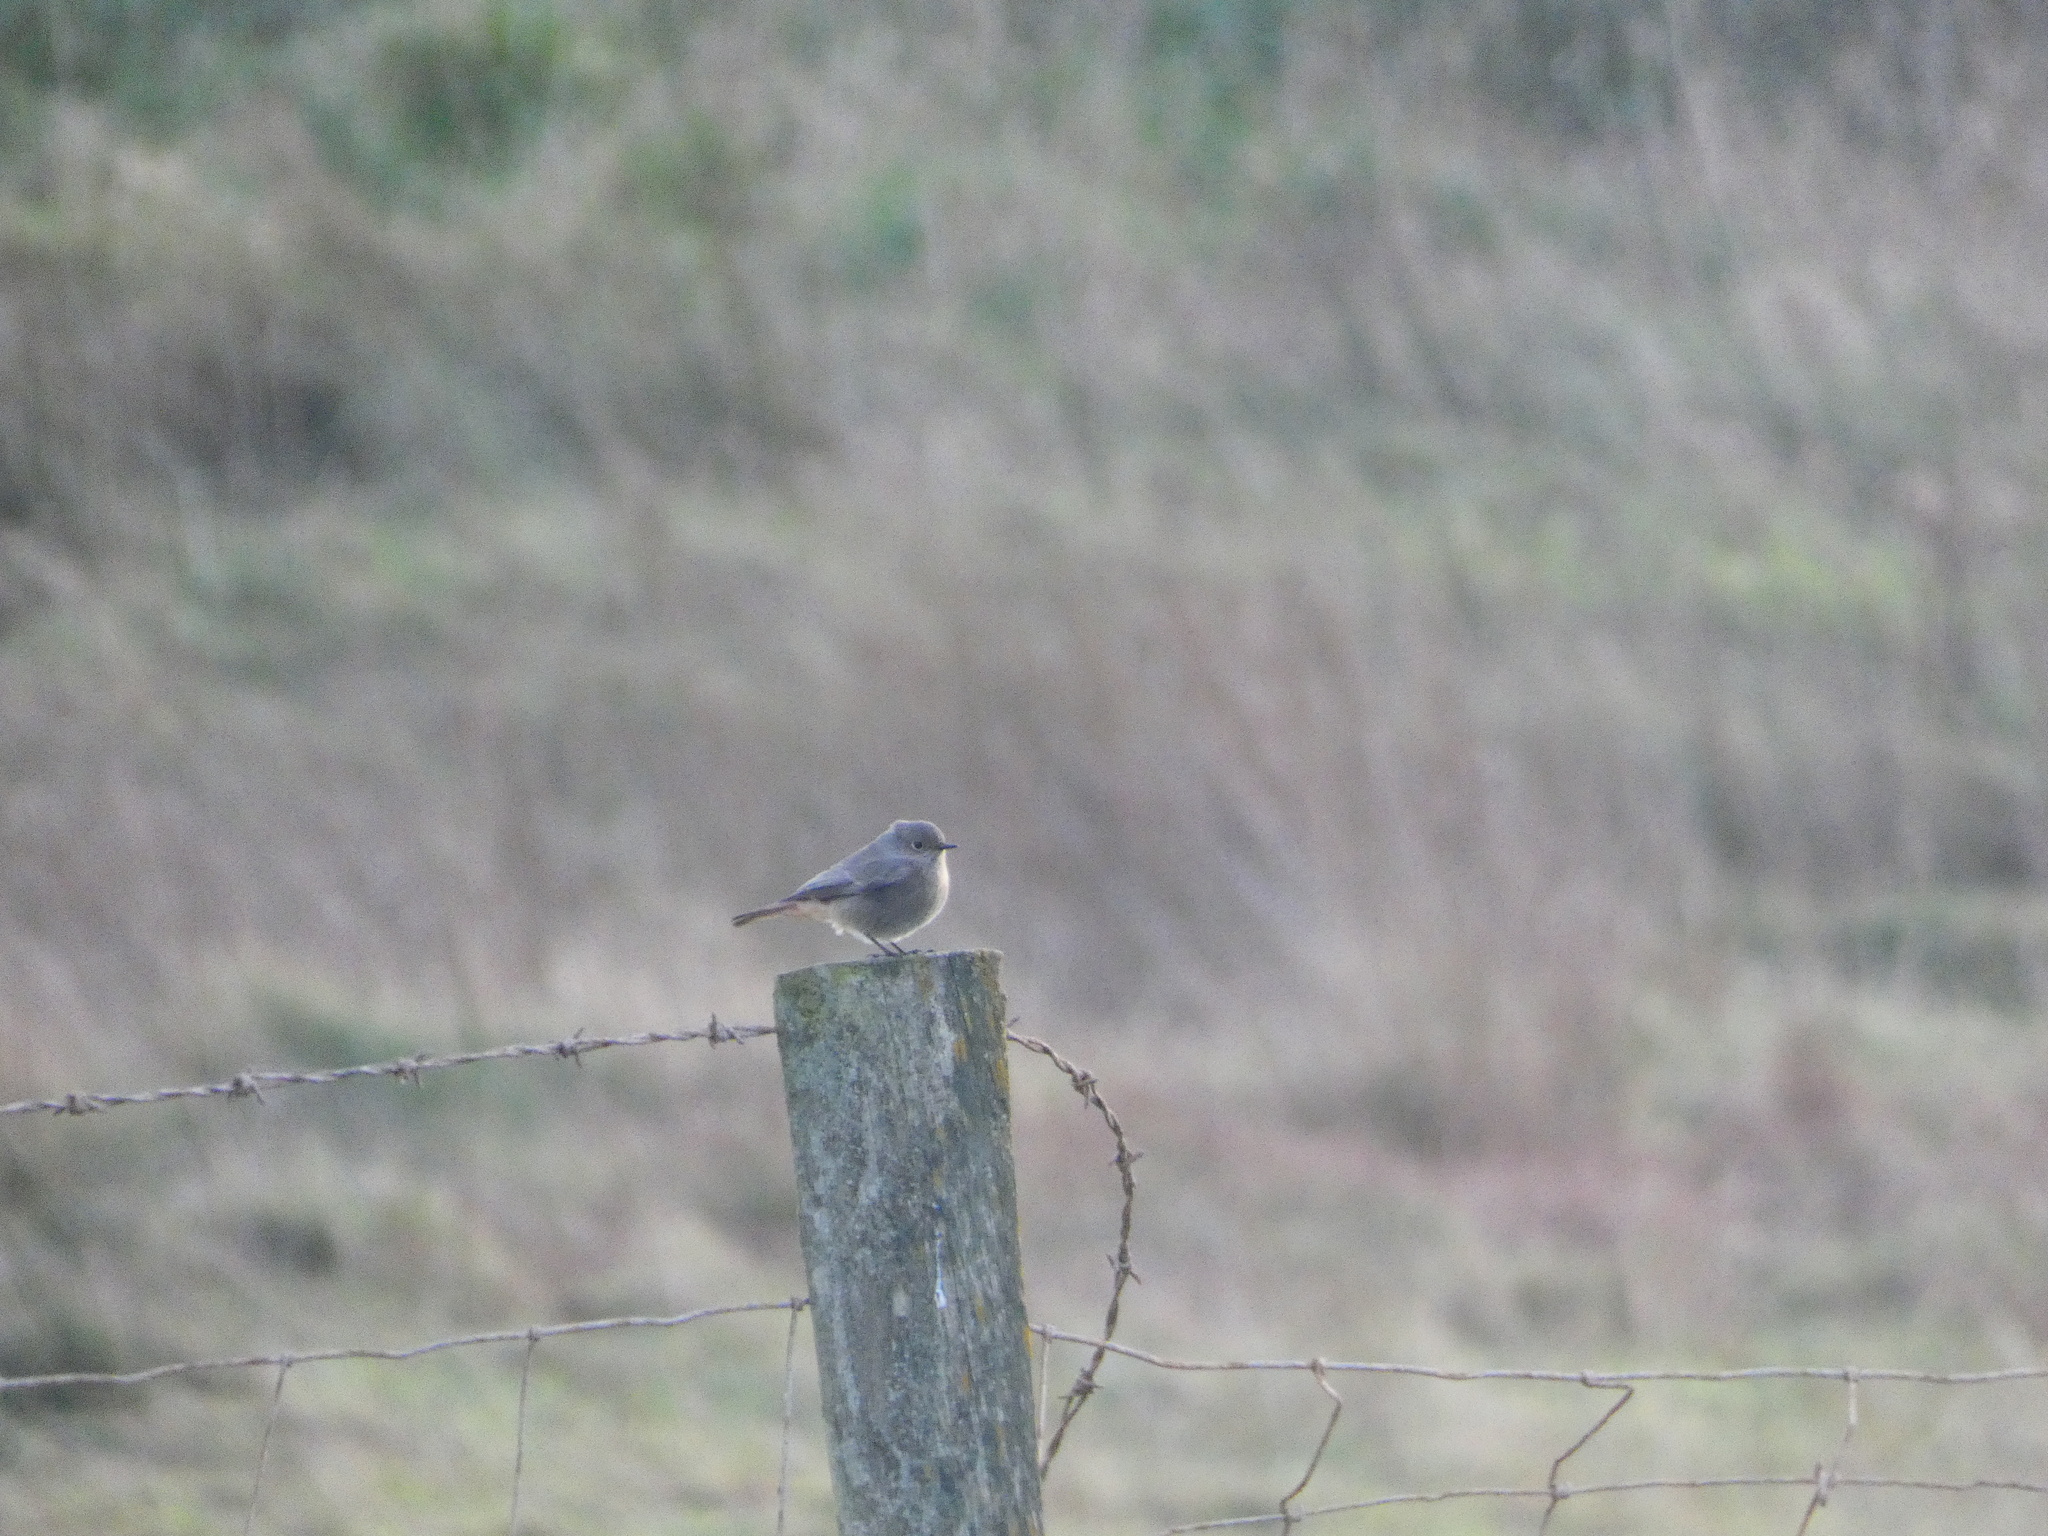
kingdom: Animalia
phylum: Chordata
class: Aves
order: Passeriformes
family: Muscicapidae
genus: Phoenicurus
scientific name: Phoenicurus ochruros
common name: Black redstart
